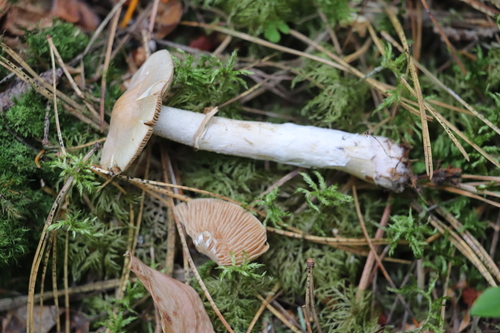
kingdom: Fungi
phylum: Basidiomycota
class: Agaricomycetes
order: Agaricales
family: Cortinariaceae
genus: Cortinarius
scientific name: Cortinarius caperatus
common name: The gypsy
